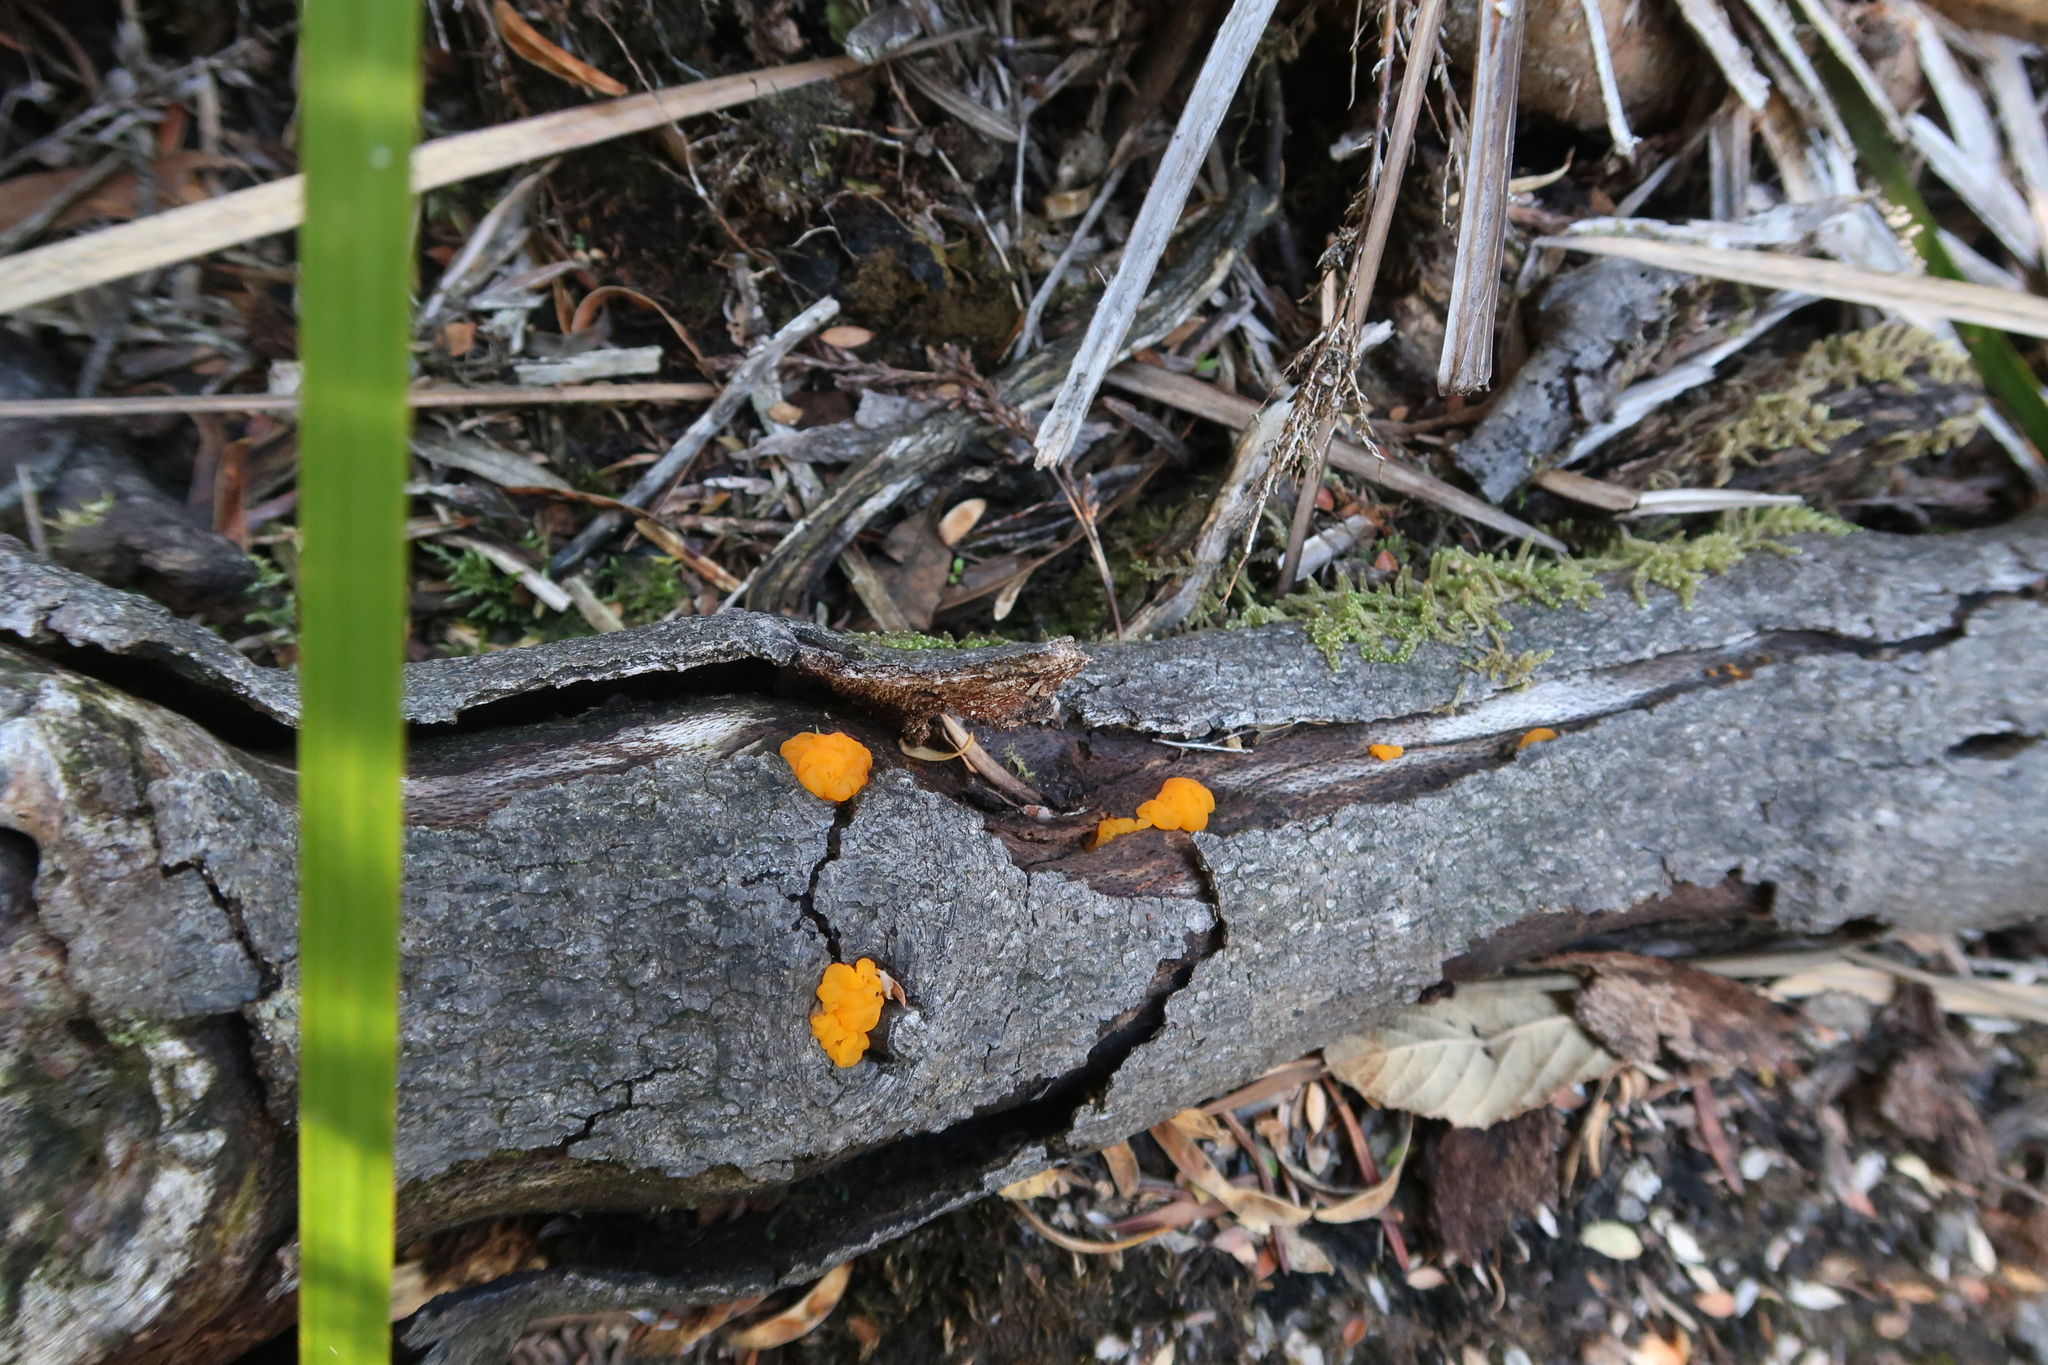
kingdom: Fungi
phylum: Basidiomycota
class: Tremellomycetes
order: Tremellales
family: Tremellaceae
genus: Tremella
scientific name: Tremella mesenterica
